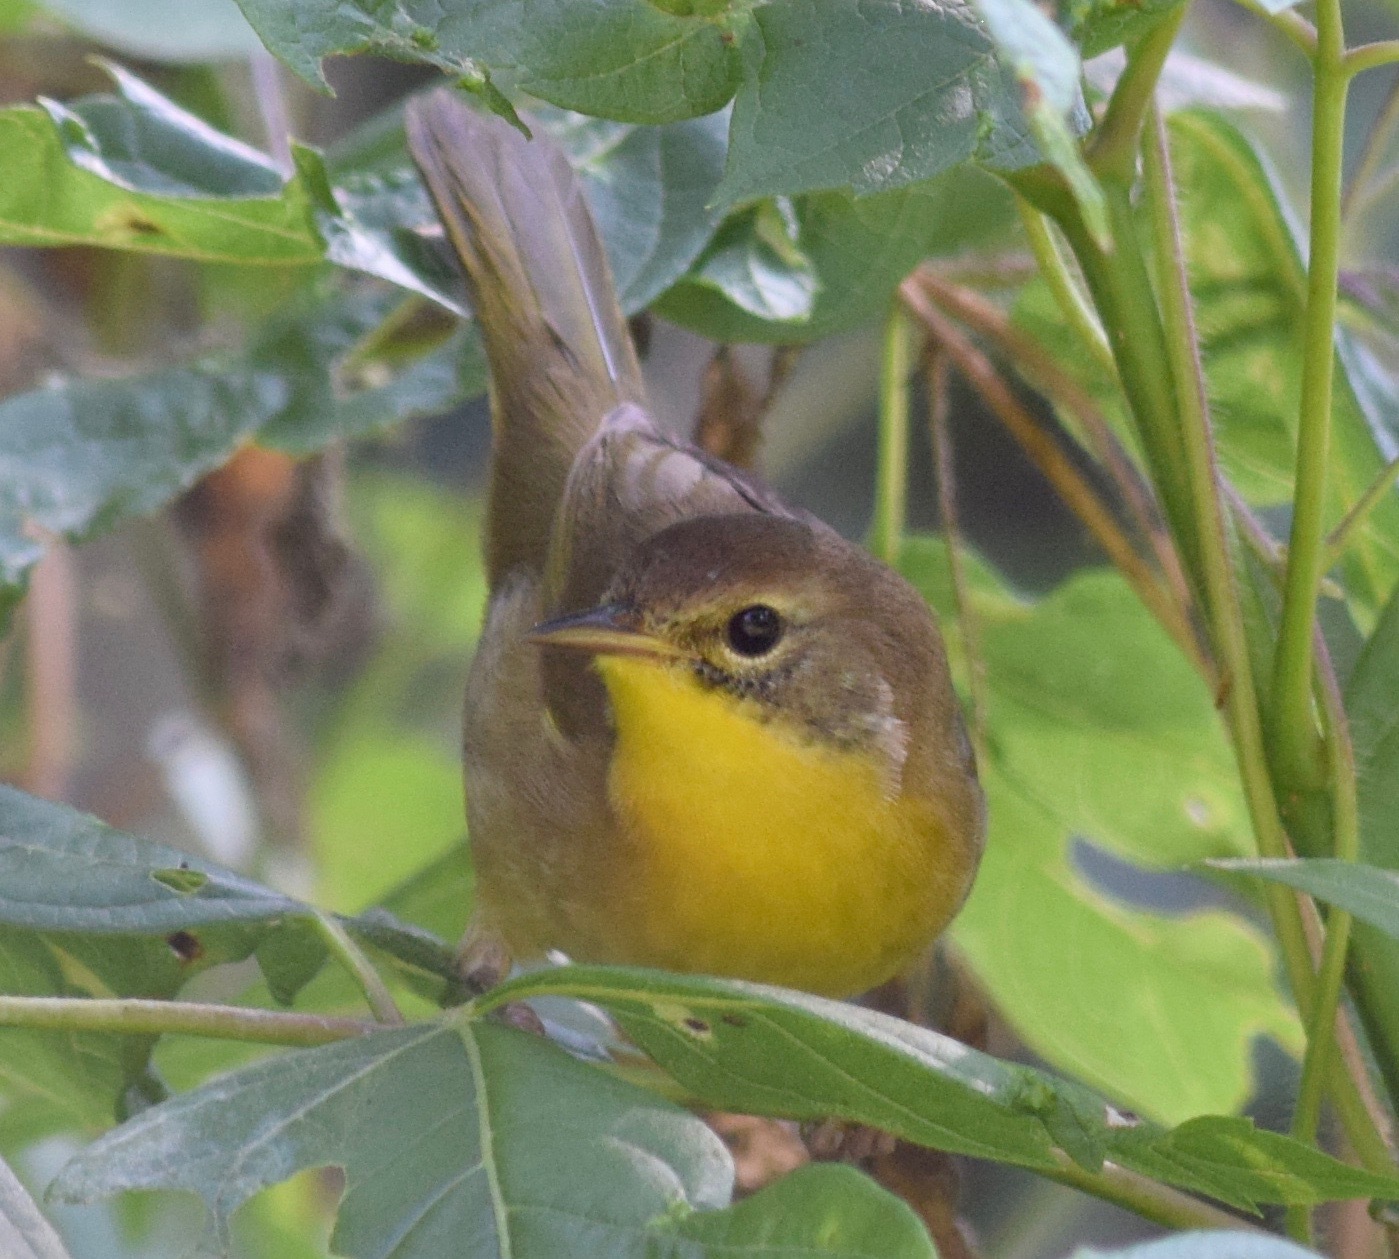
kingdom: Animalia
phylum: Chordata
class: Aves
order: Passeriformes
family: Parulidae
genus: Geothlypis
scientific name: Geothlypis trichas
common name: Common yellowthroat
